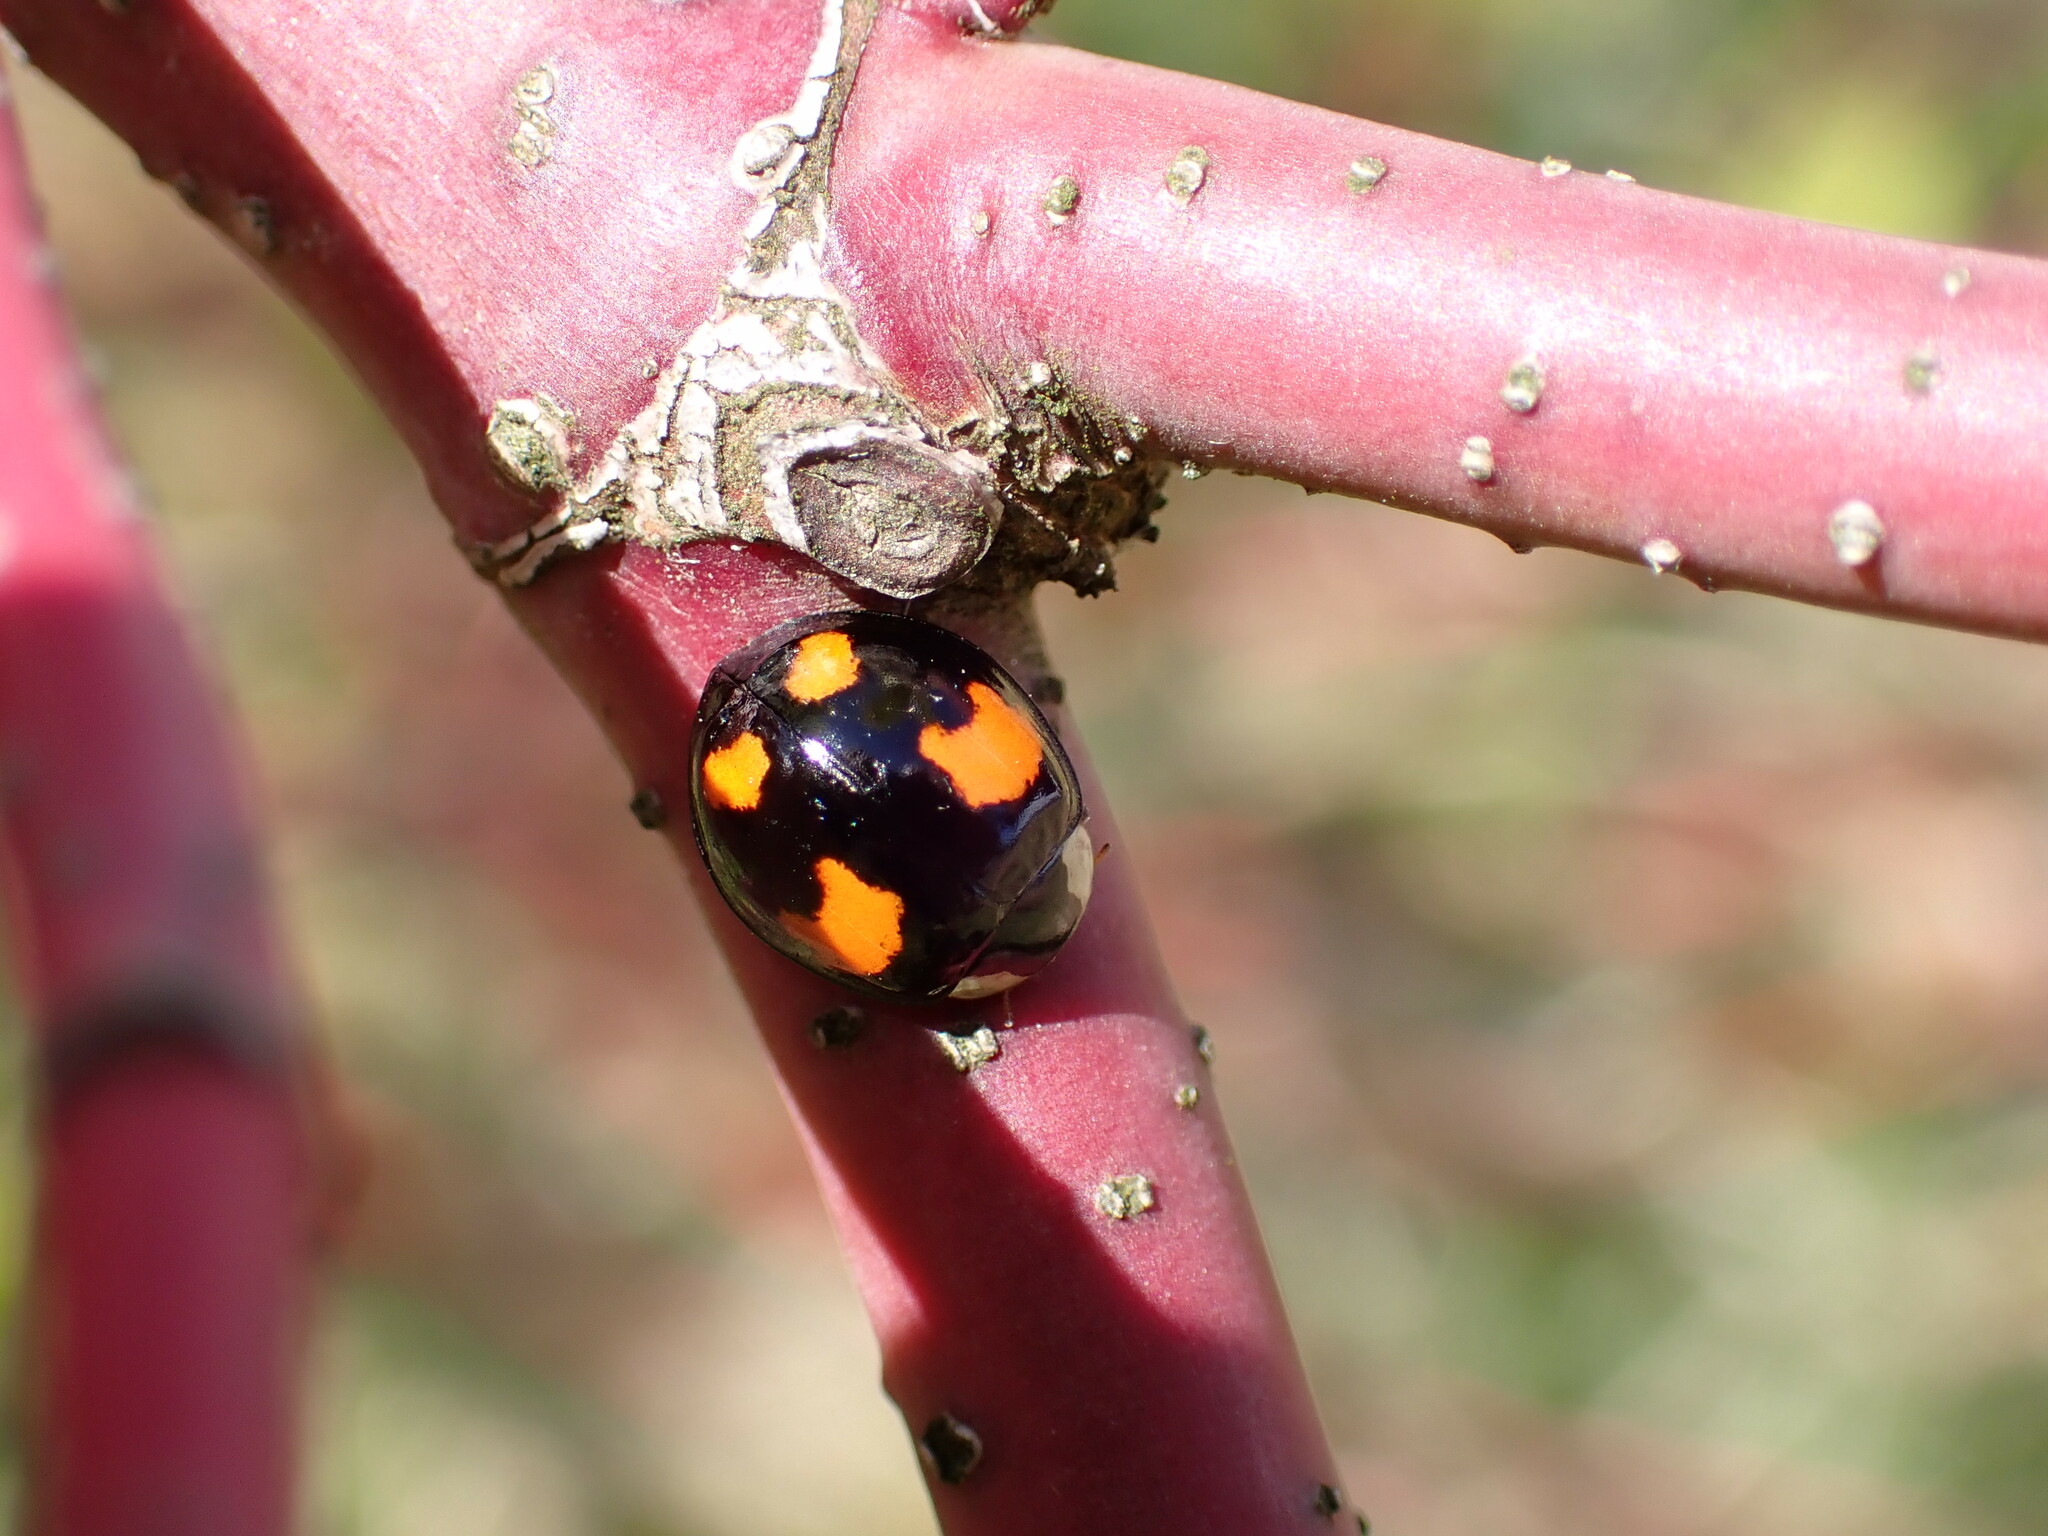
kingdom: Animalia
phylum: Arthropoda
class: Insecta
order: Coleoptera
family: Coccinellidae
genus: Harmonia
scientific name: Harmonia axyridis
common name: Harlequin ladybird
